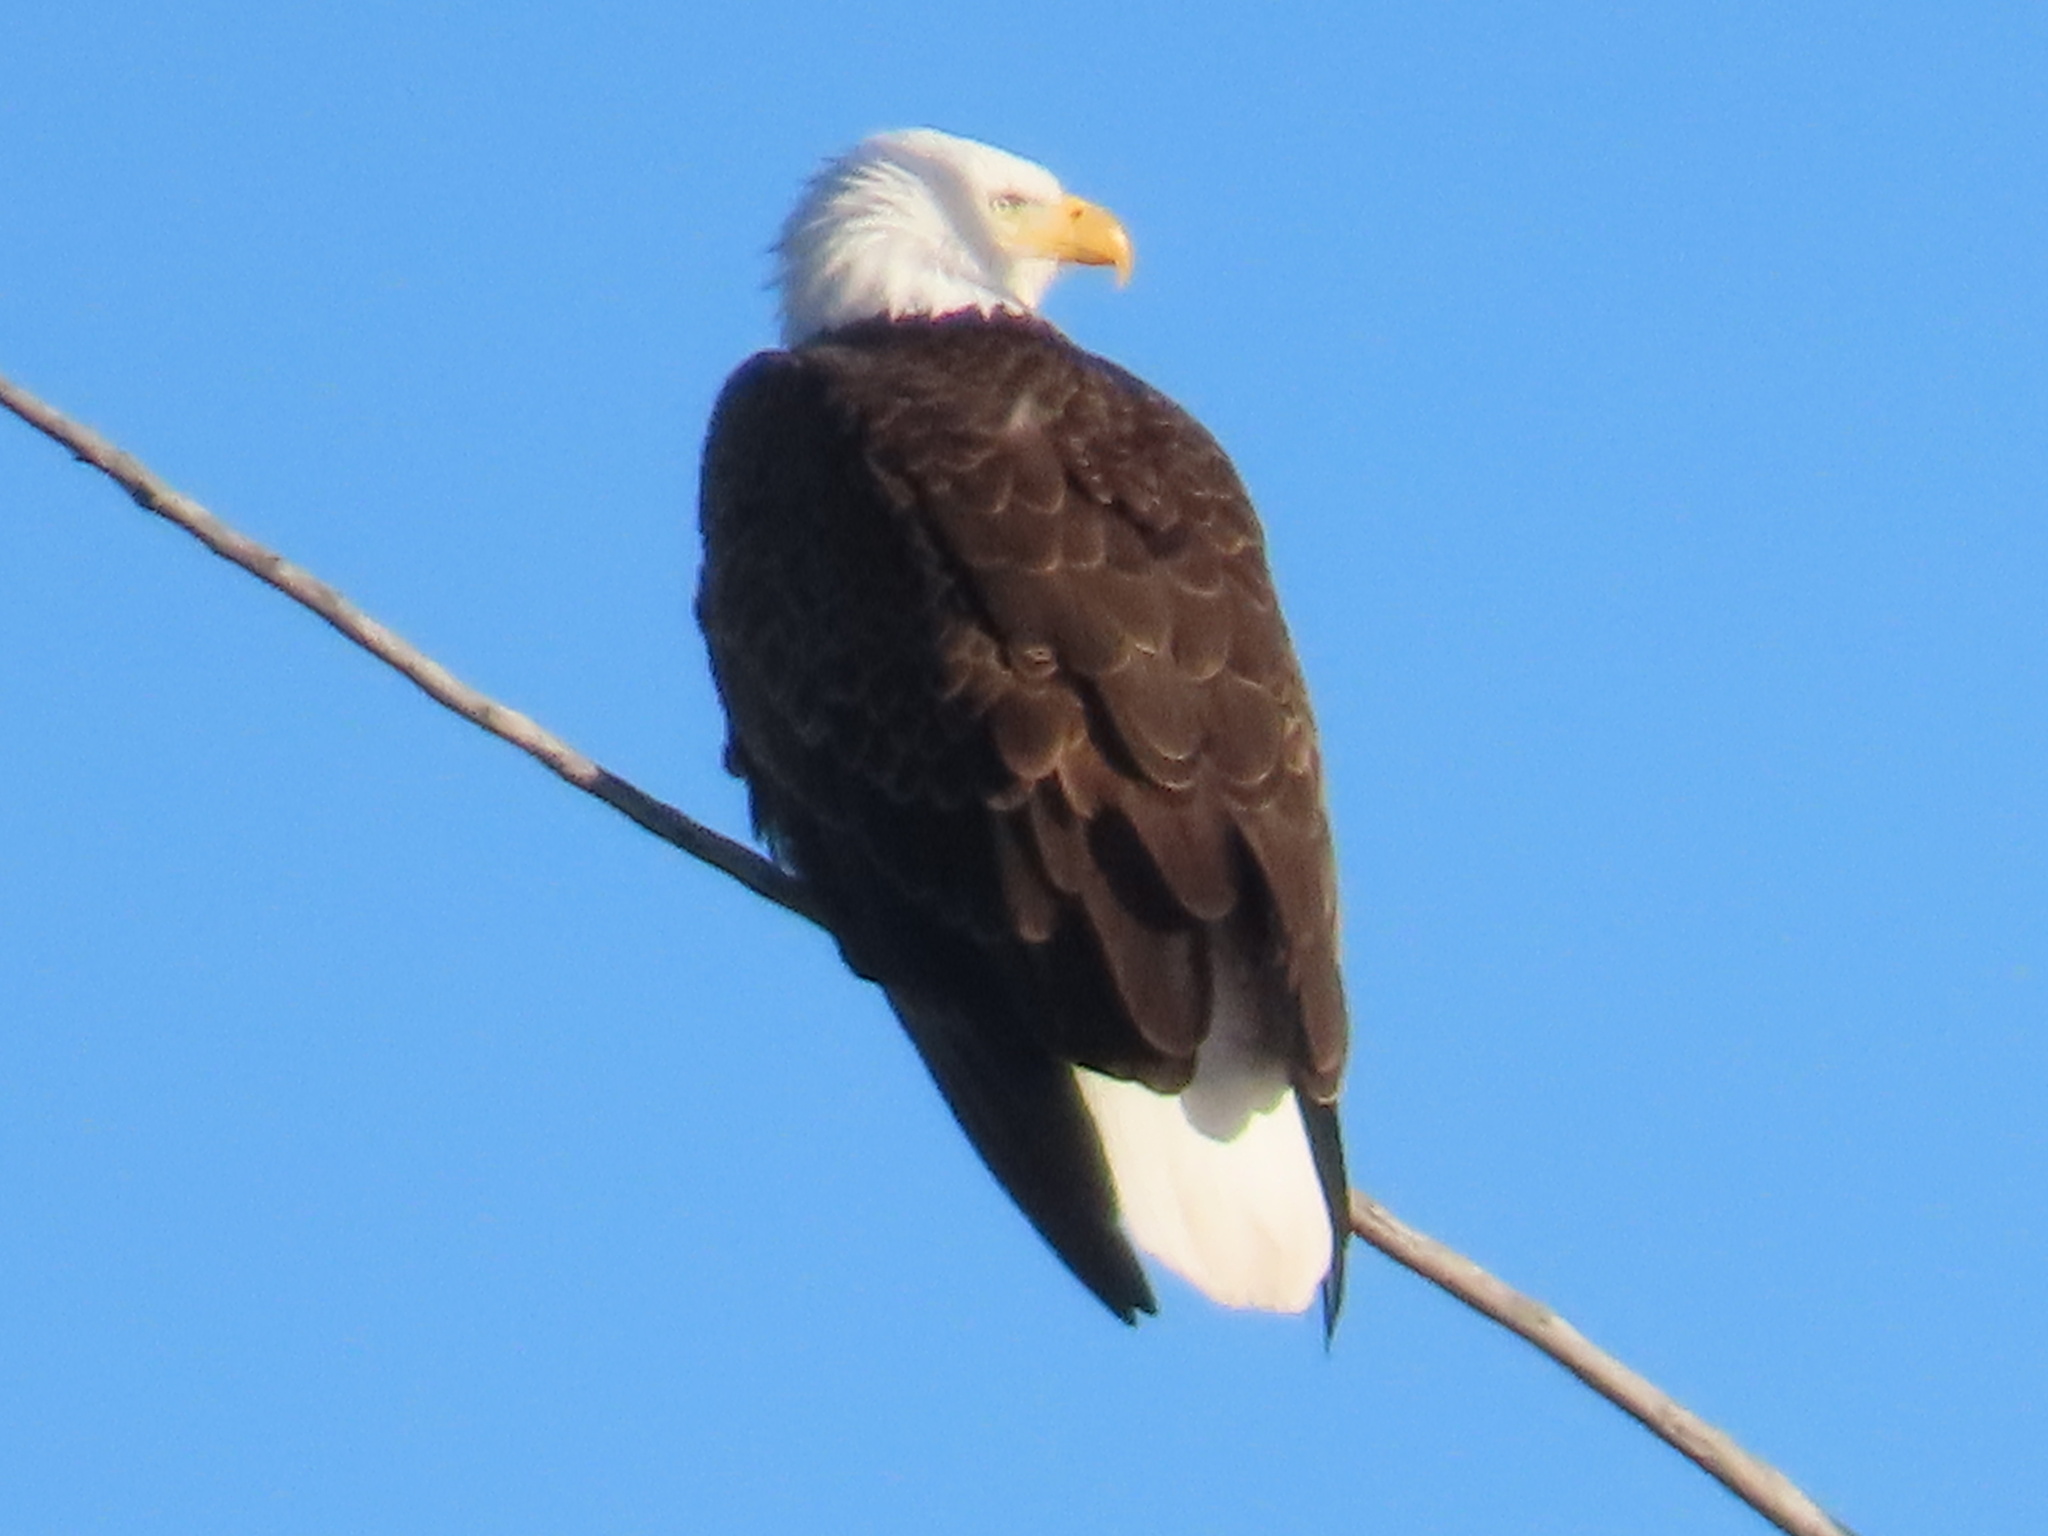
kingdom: Animalia
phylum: Chordata
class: Aves
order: Accipitriformes
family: Accipitridae
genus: Haliaeetus
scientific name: Haliaeetus leucocephalus
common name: Bald eagle
